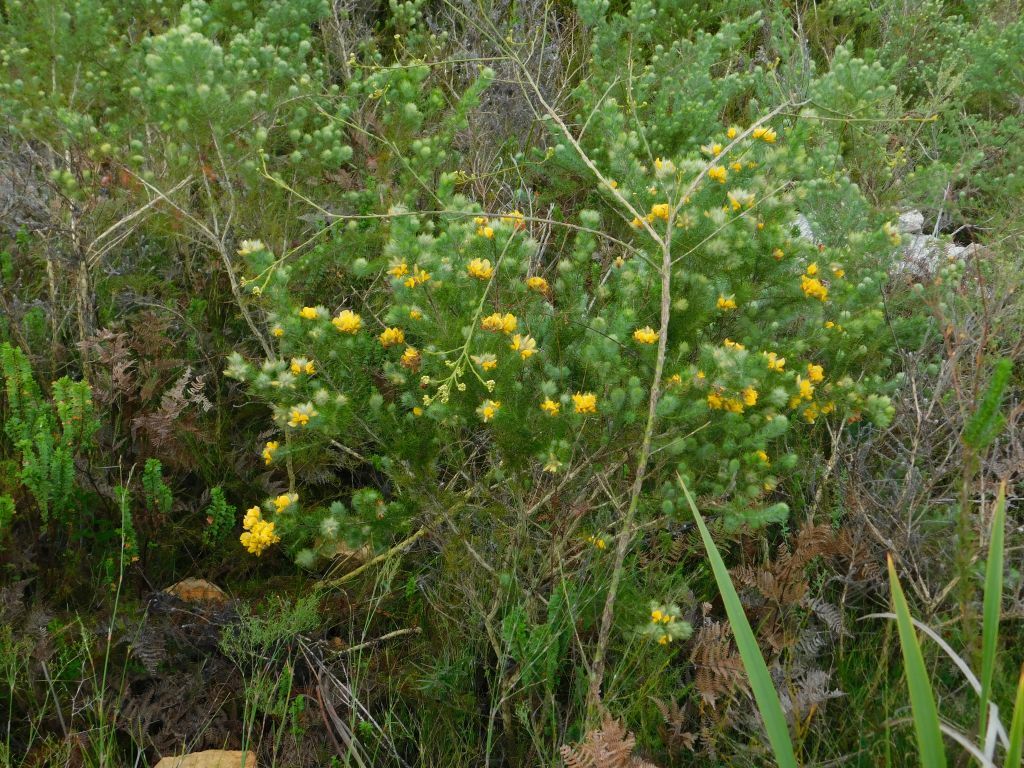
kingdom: Plantae
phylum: Tracheophyta
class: Magnoliopsida
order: Fabales
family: Fabaceae
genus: Aspalathus
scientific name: Aspalathus ciliaris
